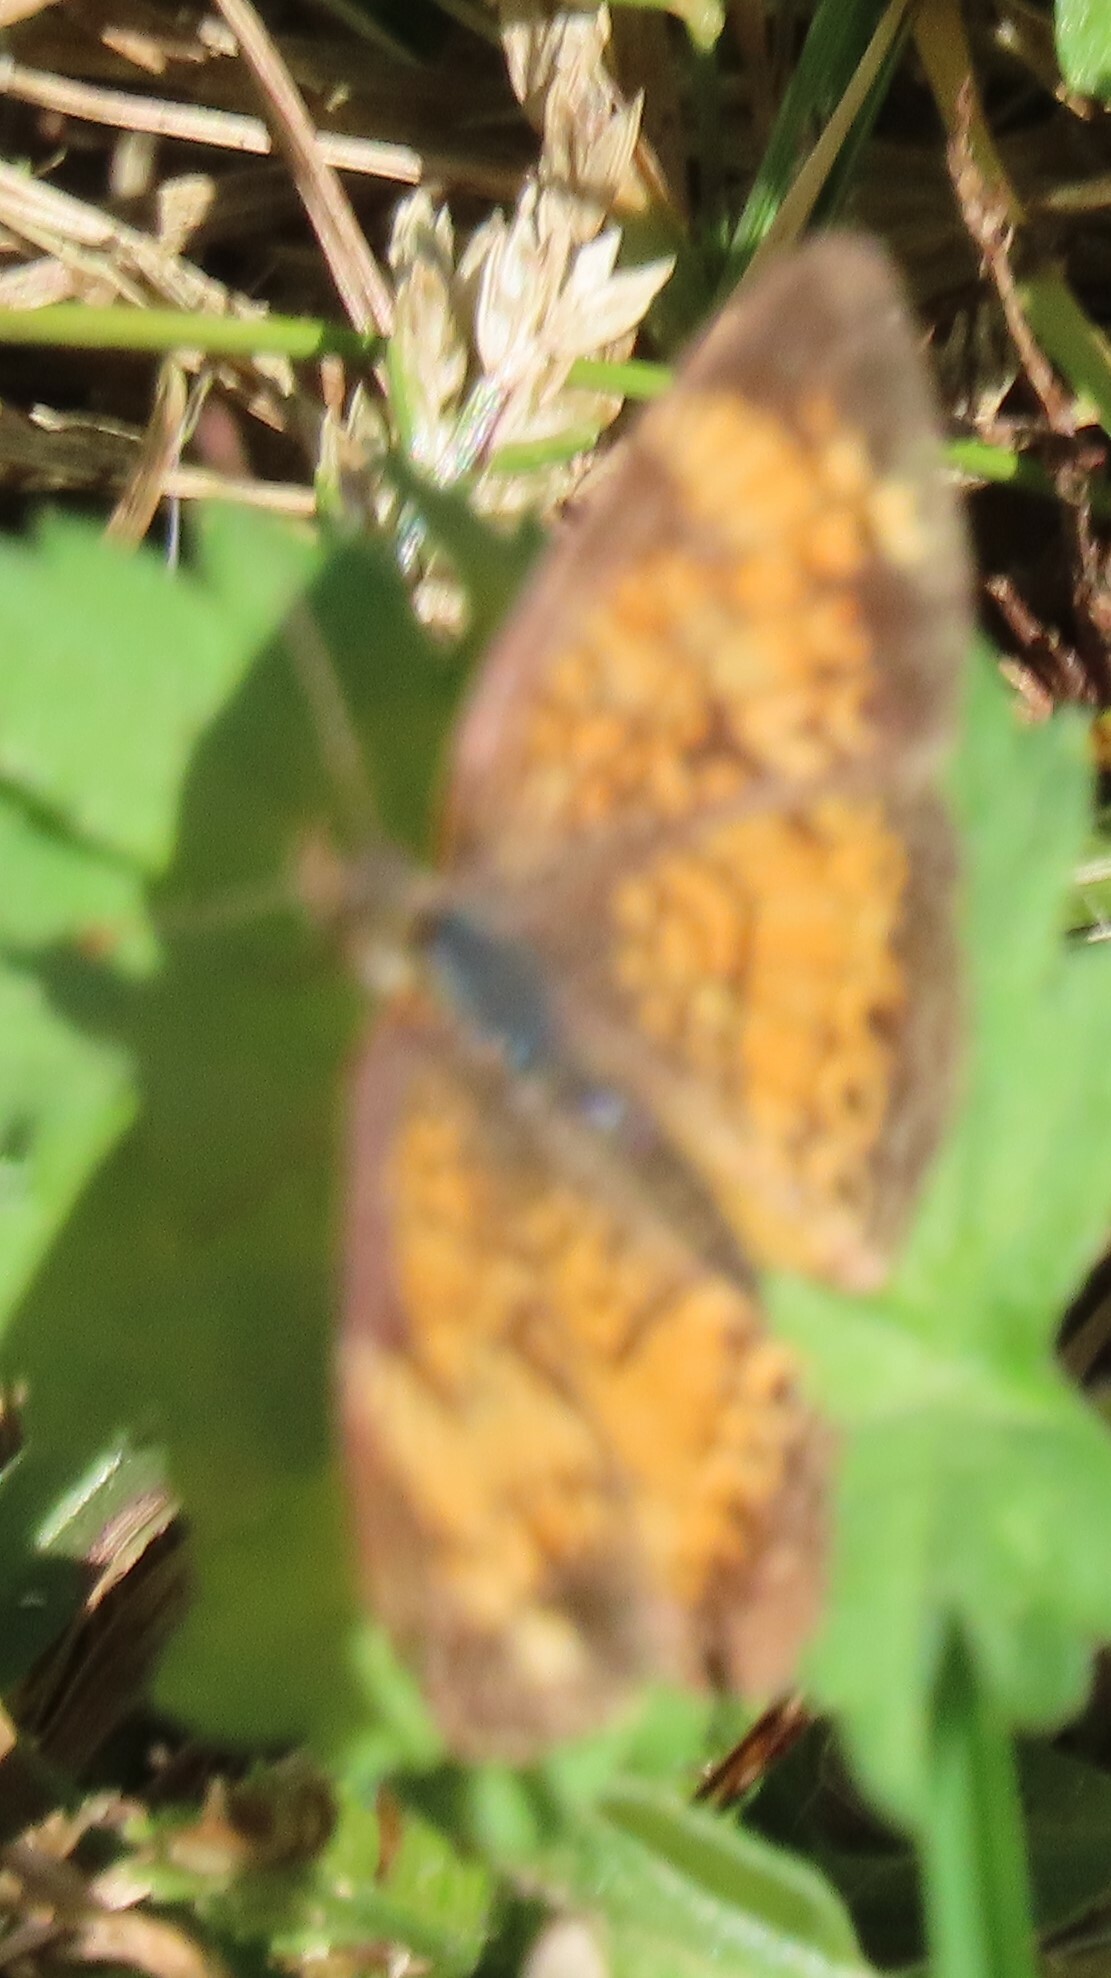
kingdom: Animalia
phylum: Arthropoda
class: Insecta
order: Lepidoptera
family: Nymphalidae
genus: Phyciodes
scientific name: Phyciodes tharos
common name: Pearl crescent
